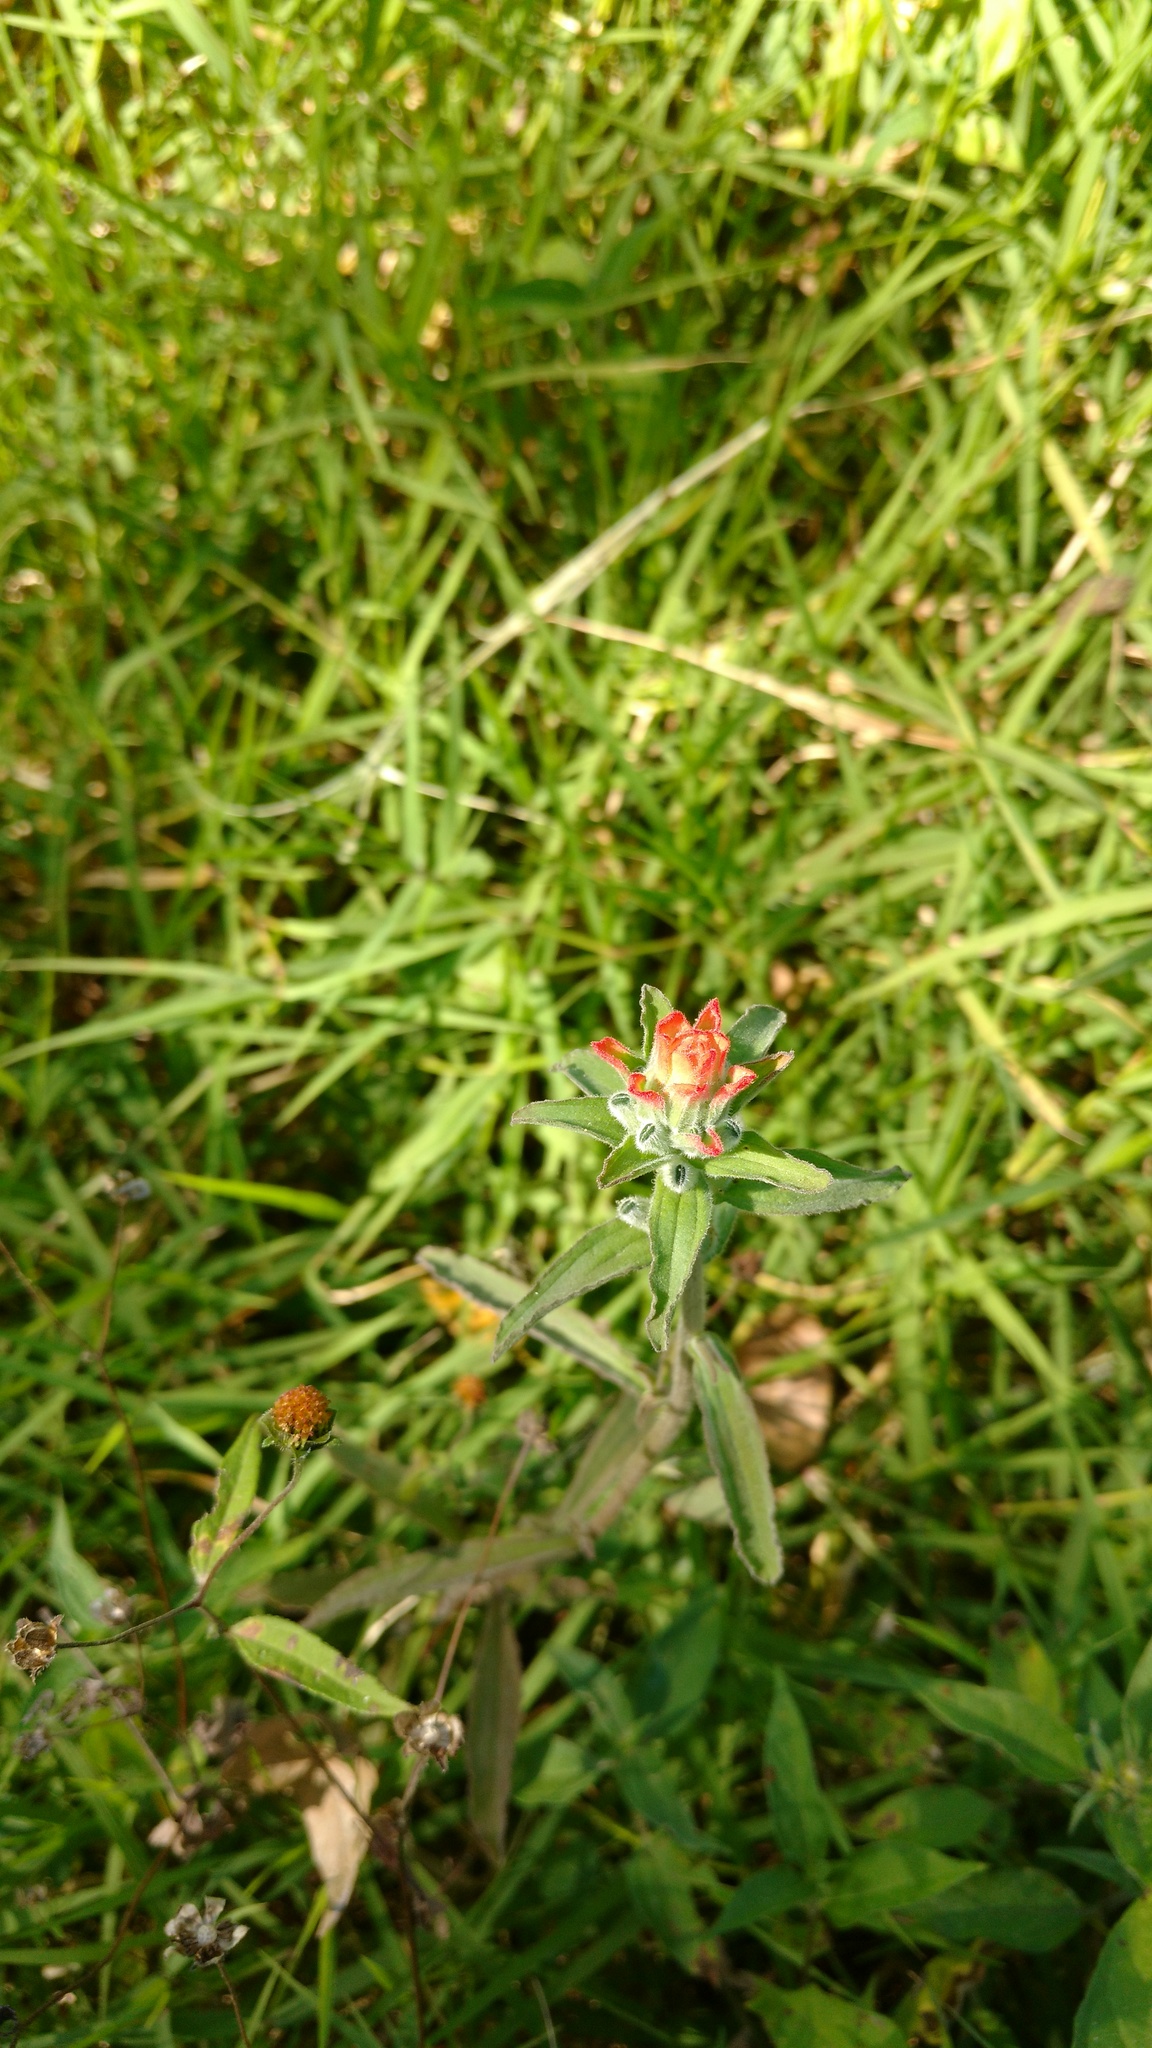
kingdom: Plantae
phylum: Tracheophyta
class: Magnoliopsida
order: Lamiales
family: Orobanchaceae
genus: Castilleja
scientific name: Castilleja arvensis
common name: Indian paintbrush
